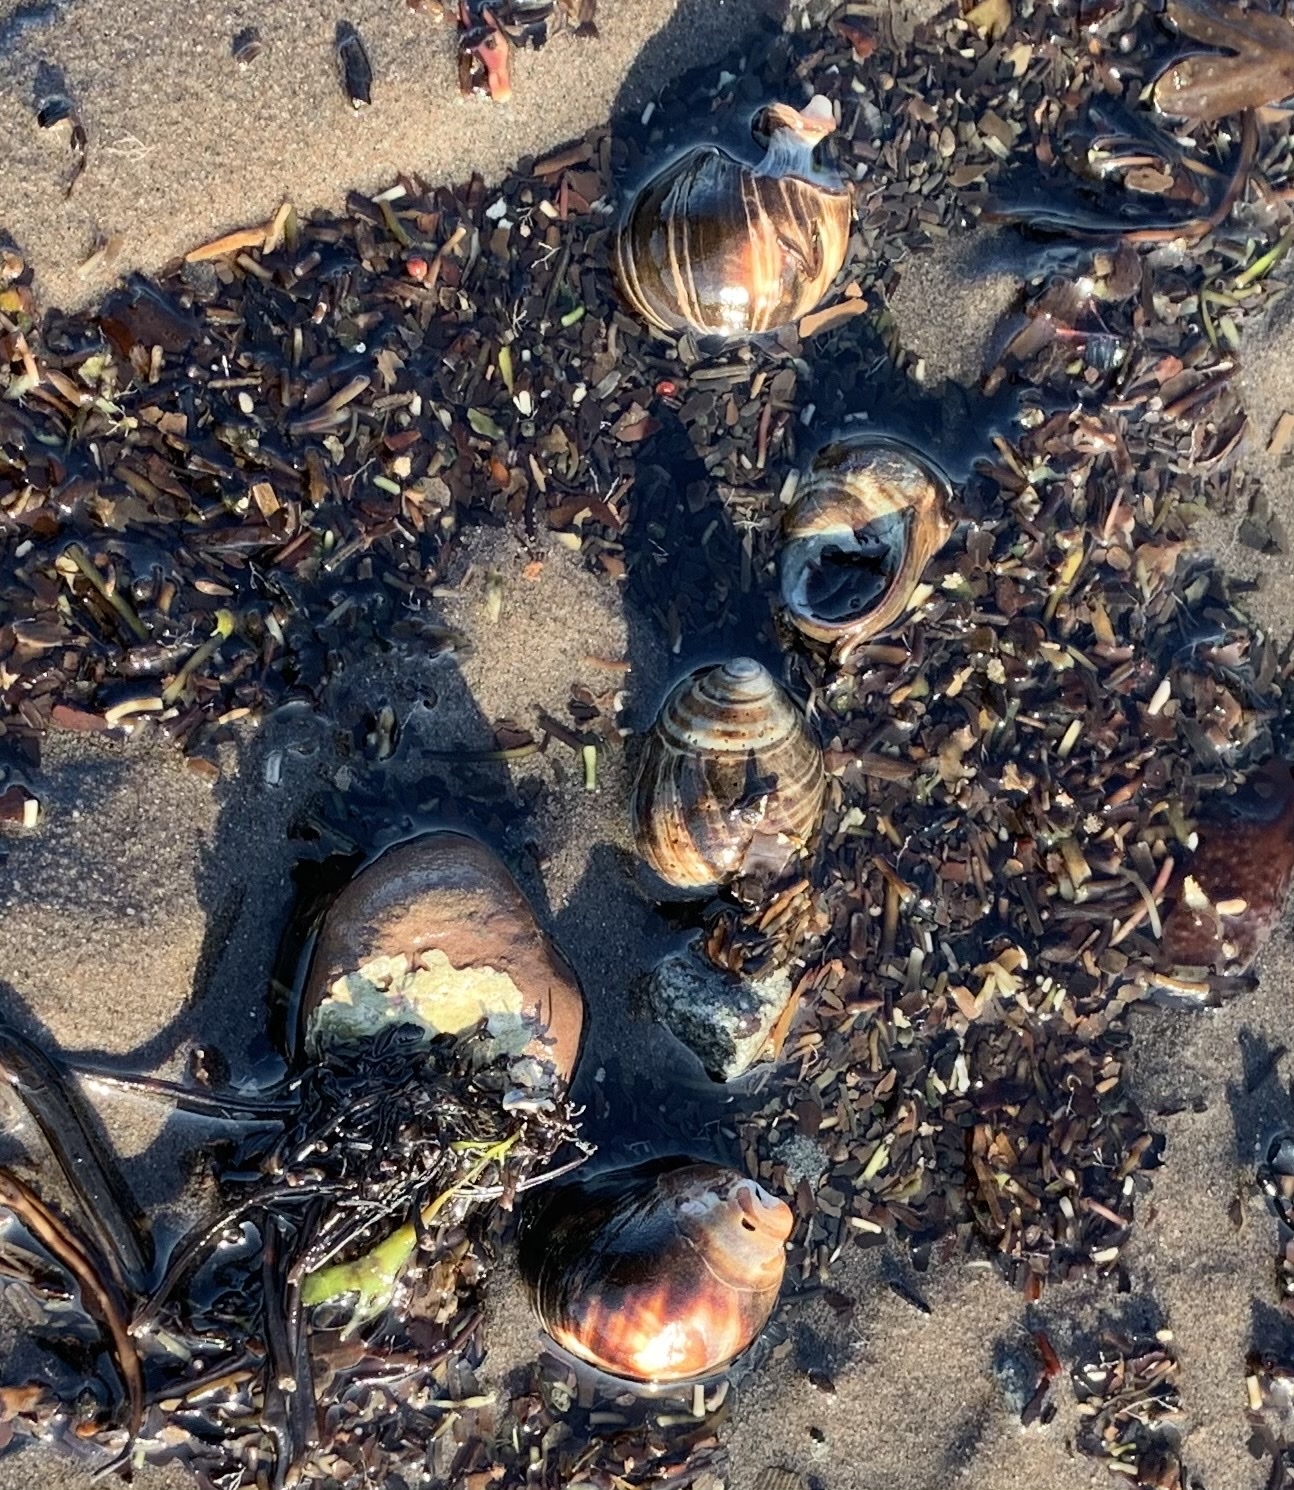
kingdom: Animalia
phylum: Mollusca
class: Gastropoda
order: Littorinimorpha
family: Littorinidae
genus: Littorina
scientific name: Littorina littorea
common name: Common periwinkle
